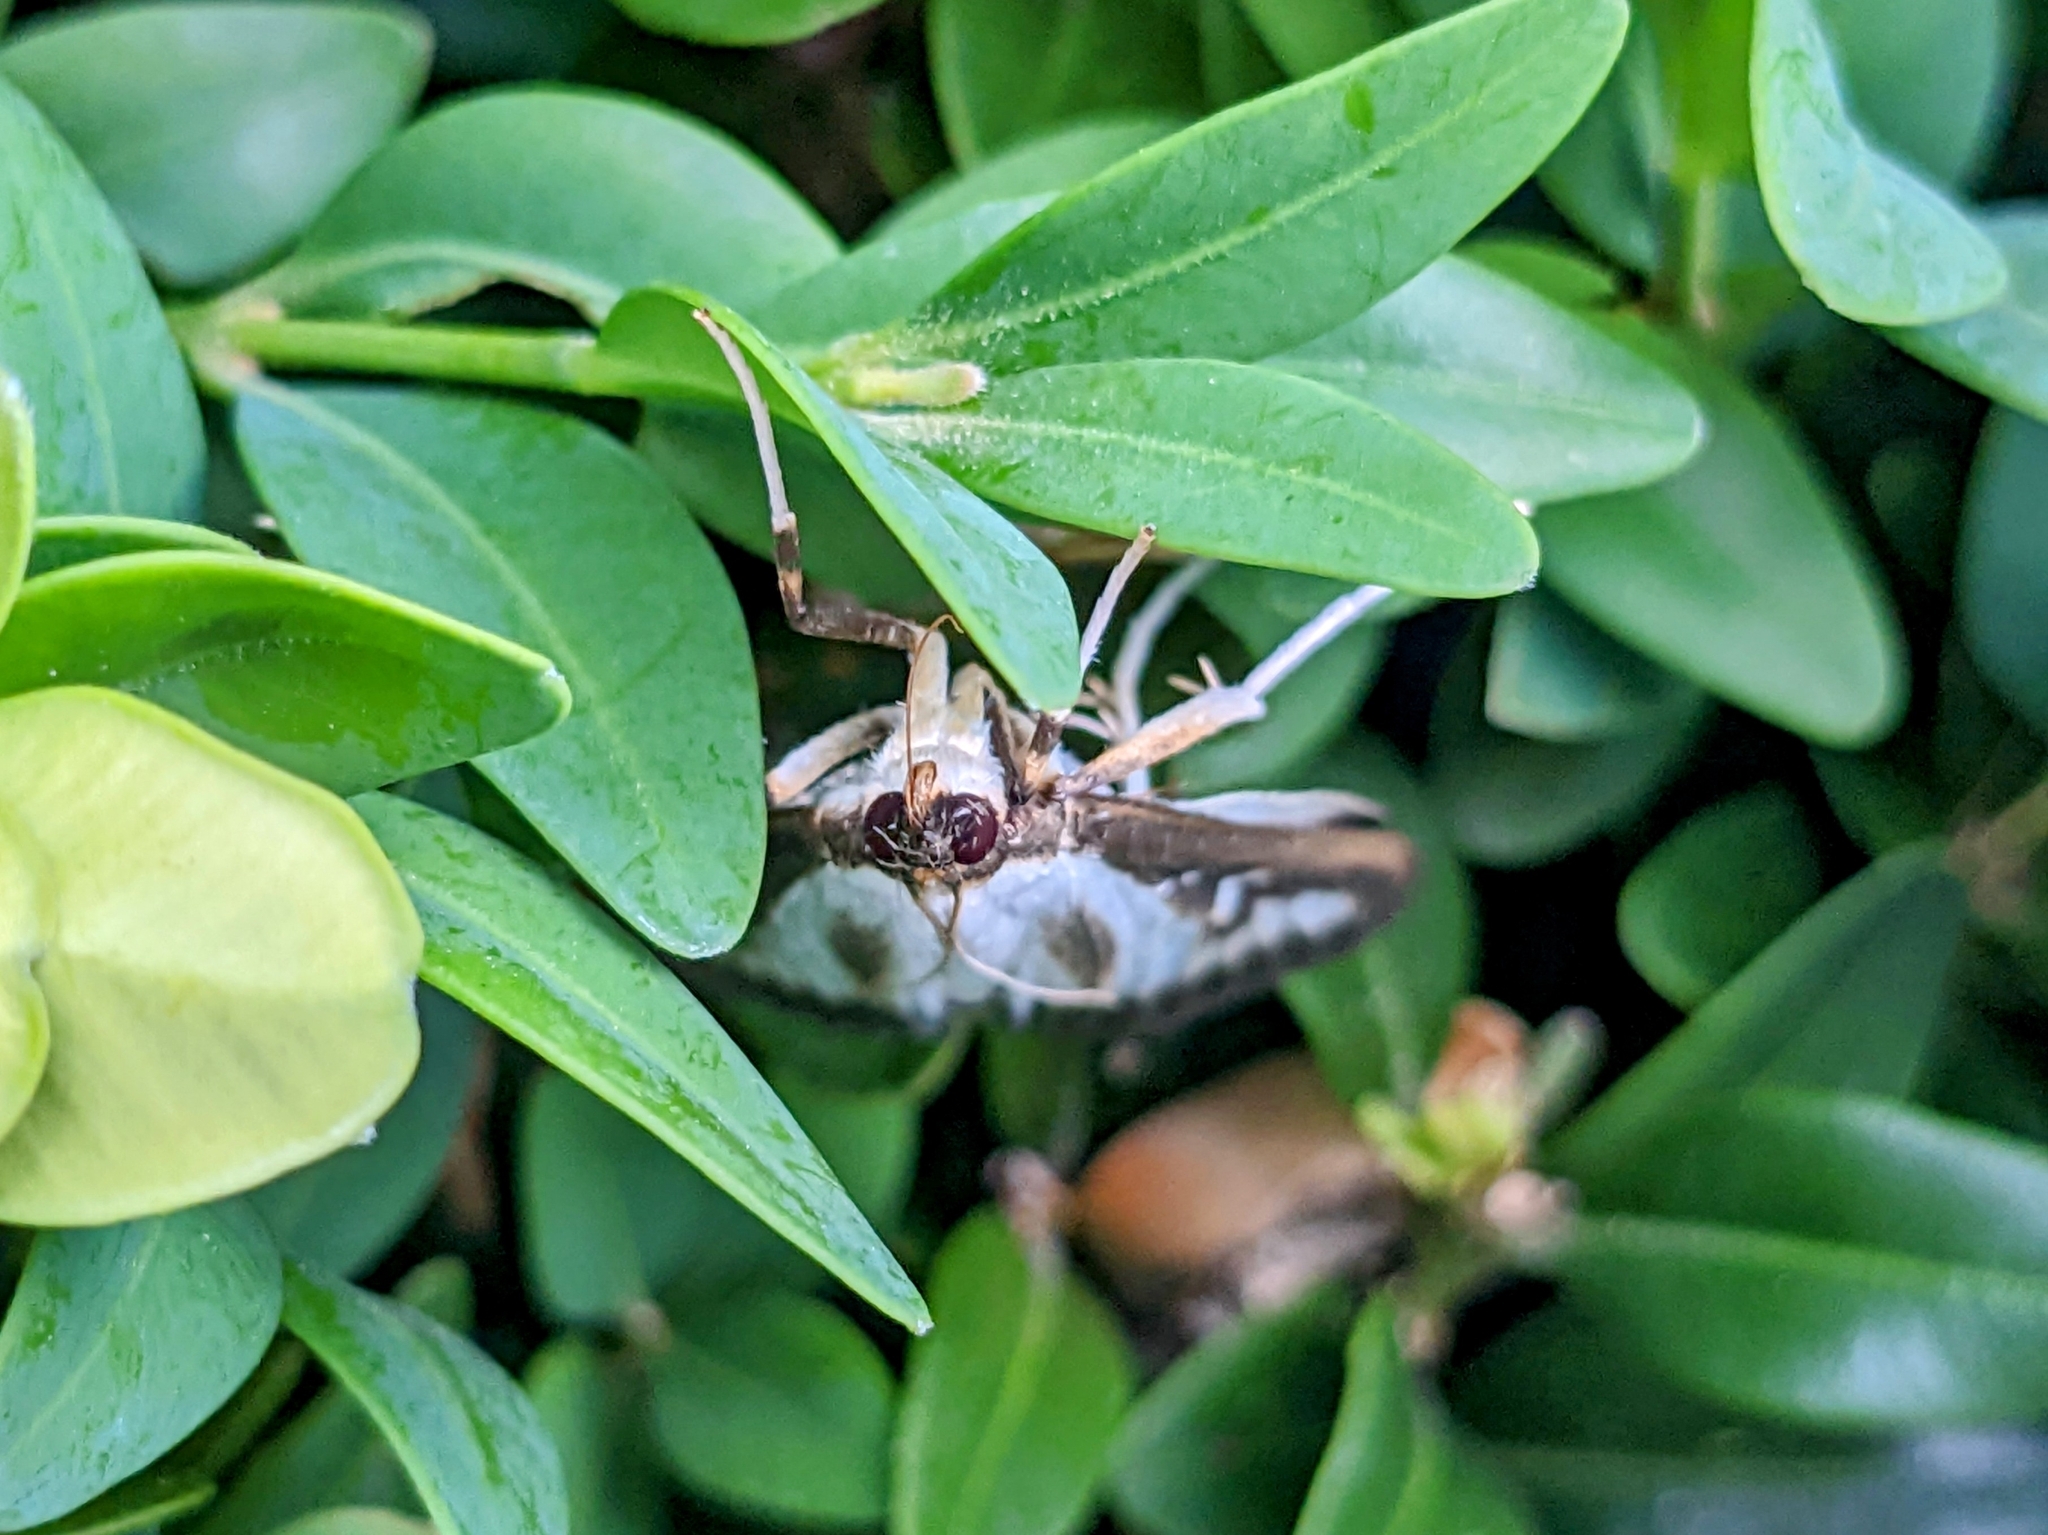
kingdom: Animalia
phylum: Arthropoda
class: Insecta
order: Lepidoptera
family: Crambidae
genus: Cydalima
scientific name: Cydalima perspectalis
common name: Box tree moth
